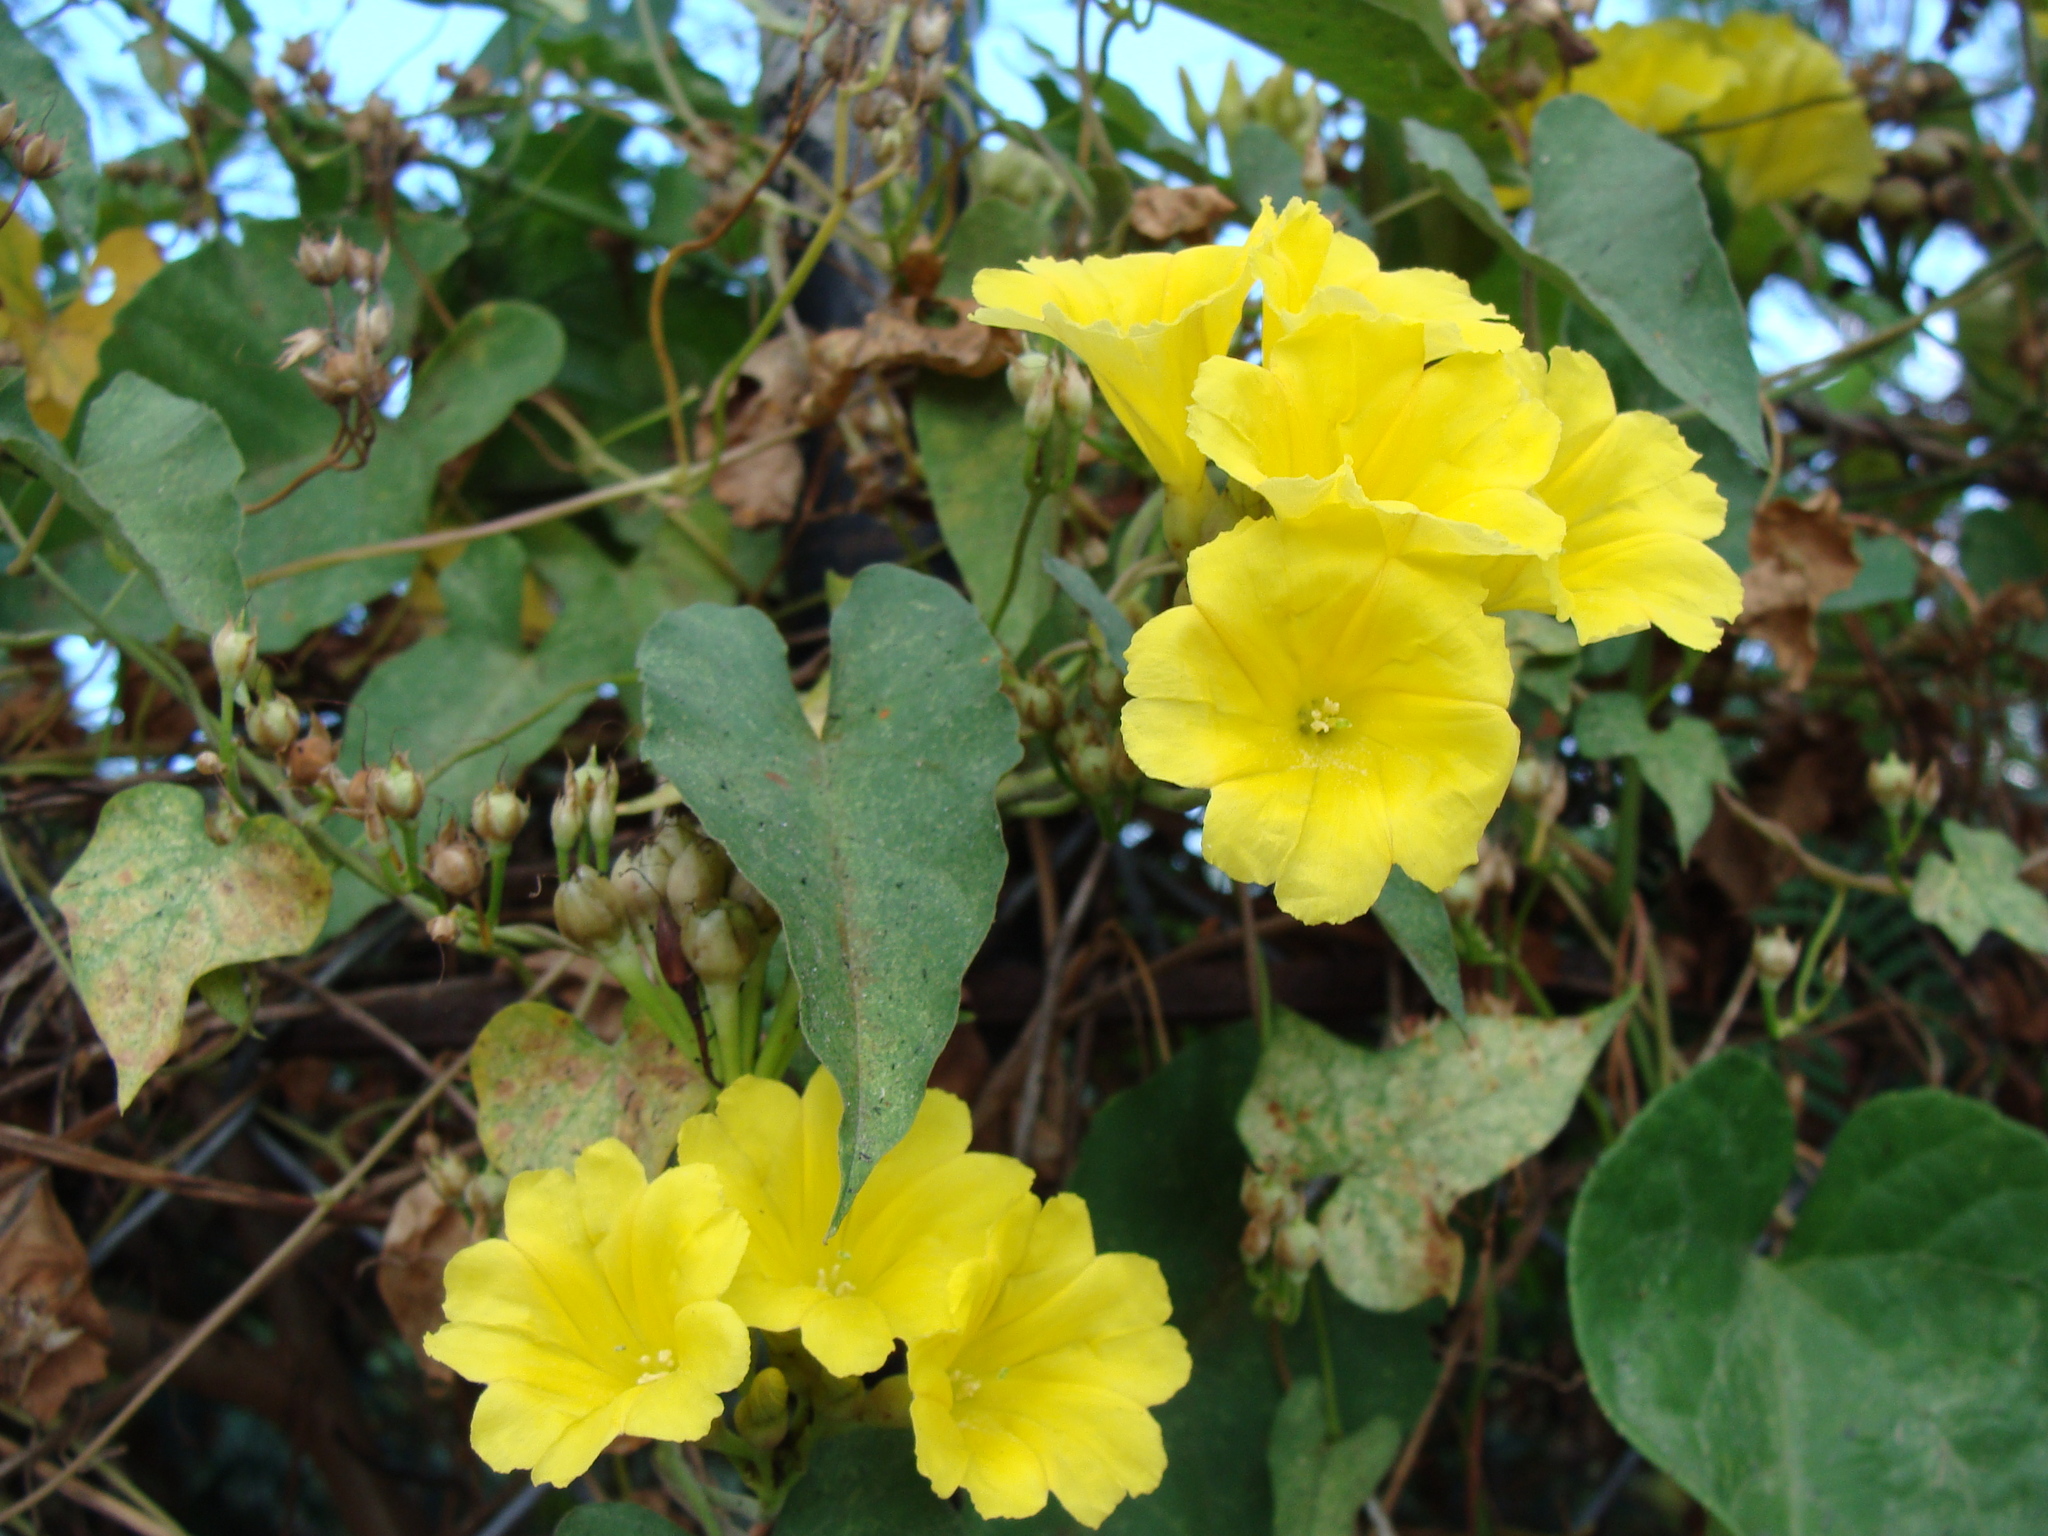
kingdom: Plantae
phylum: Tracheophyta
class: Magnoliopsida
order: Solanales
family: Convolvulaceae
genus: Camonea
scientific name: Camonea umbellata
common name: Hogvine
